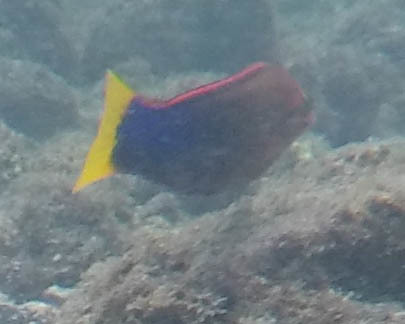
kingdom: Animalia
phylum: Chordata
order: Perciformes
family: Labridae
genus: Coris
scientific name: Coris gaimard
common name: Yellowtail coris
